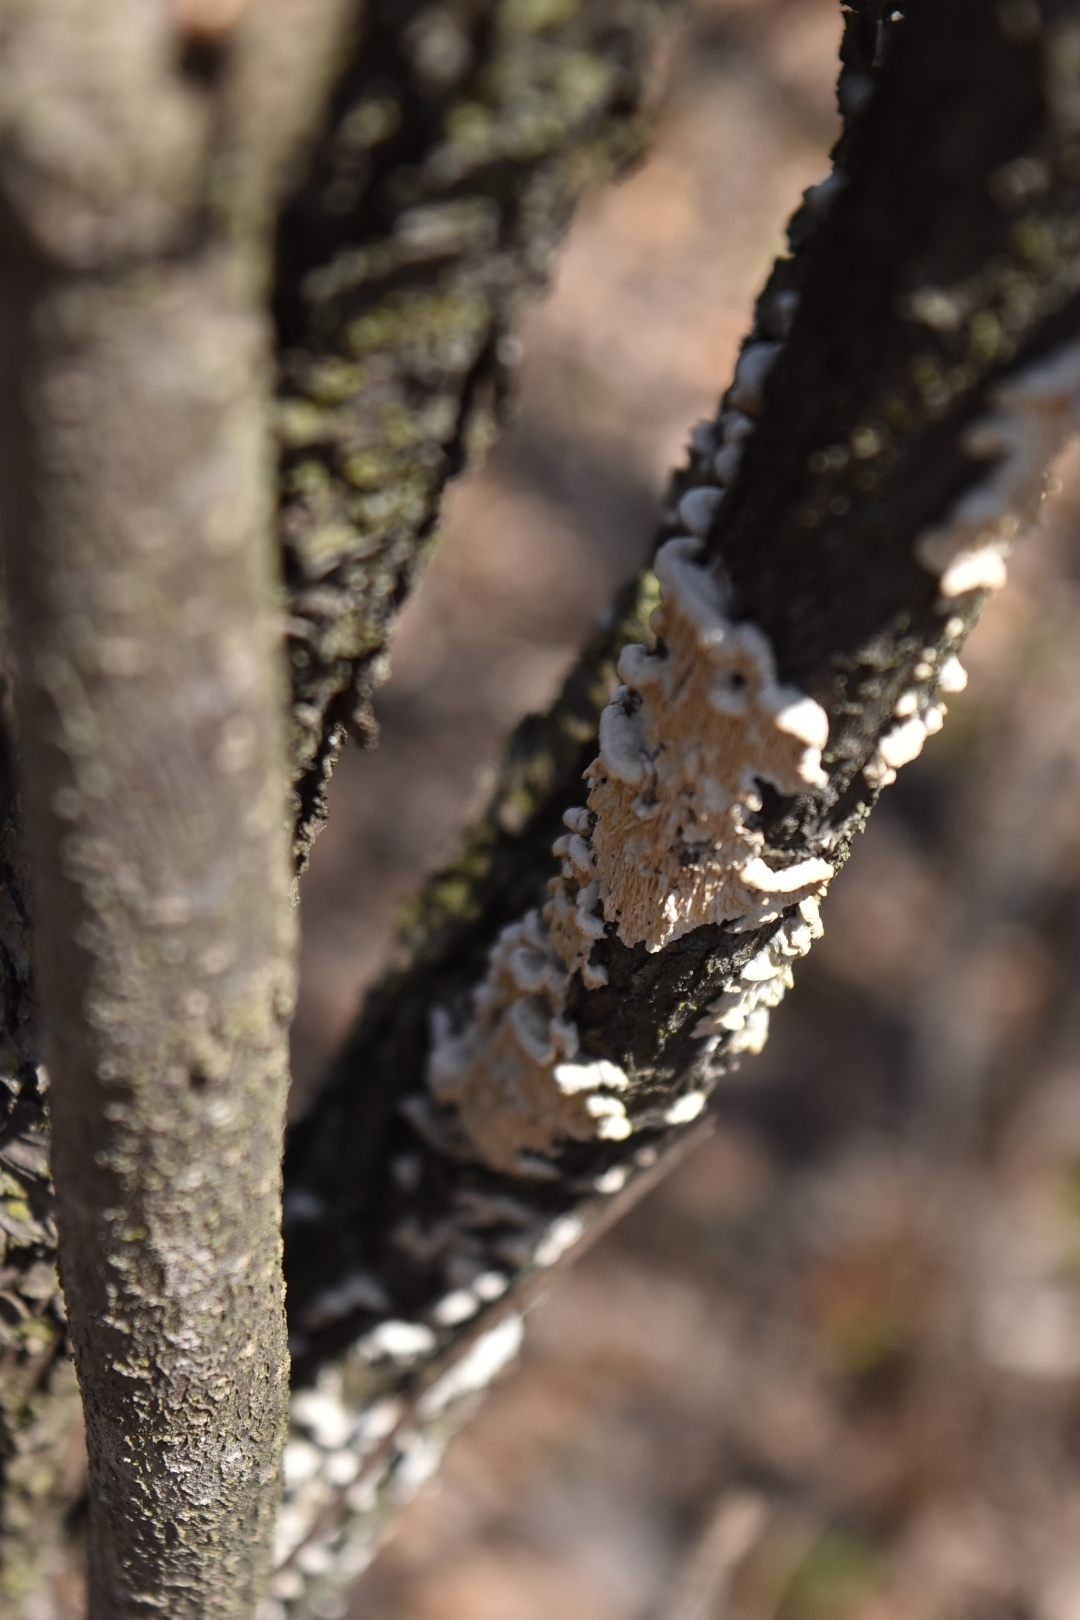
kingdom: Fungi
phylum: Basidiomycota
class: Agaricomycetes
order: Polyporales
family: Irpicaceae
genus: Irpex
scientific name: Irpex lacteus
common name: Milk-white toothed polypore
